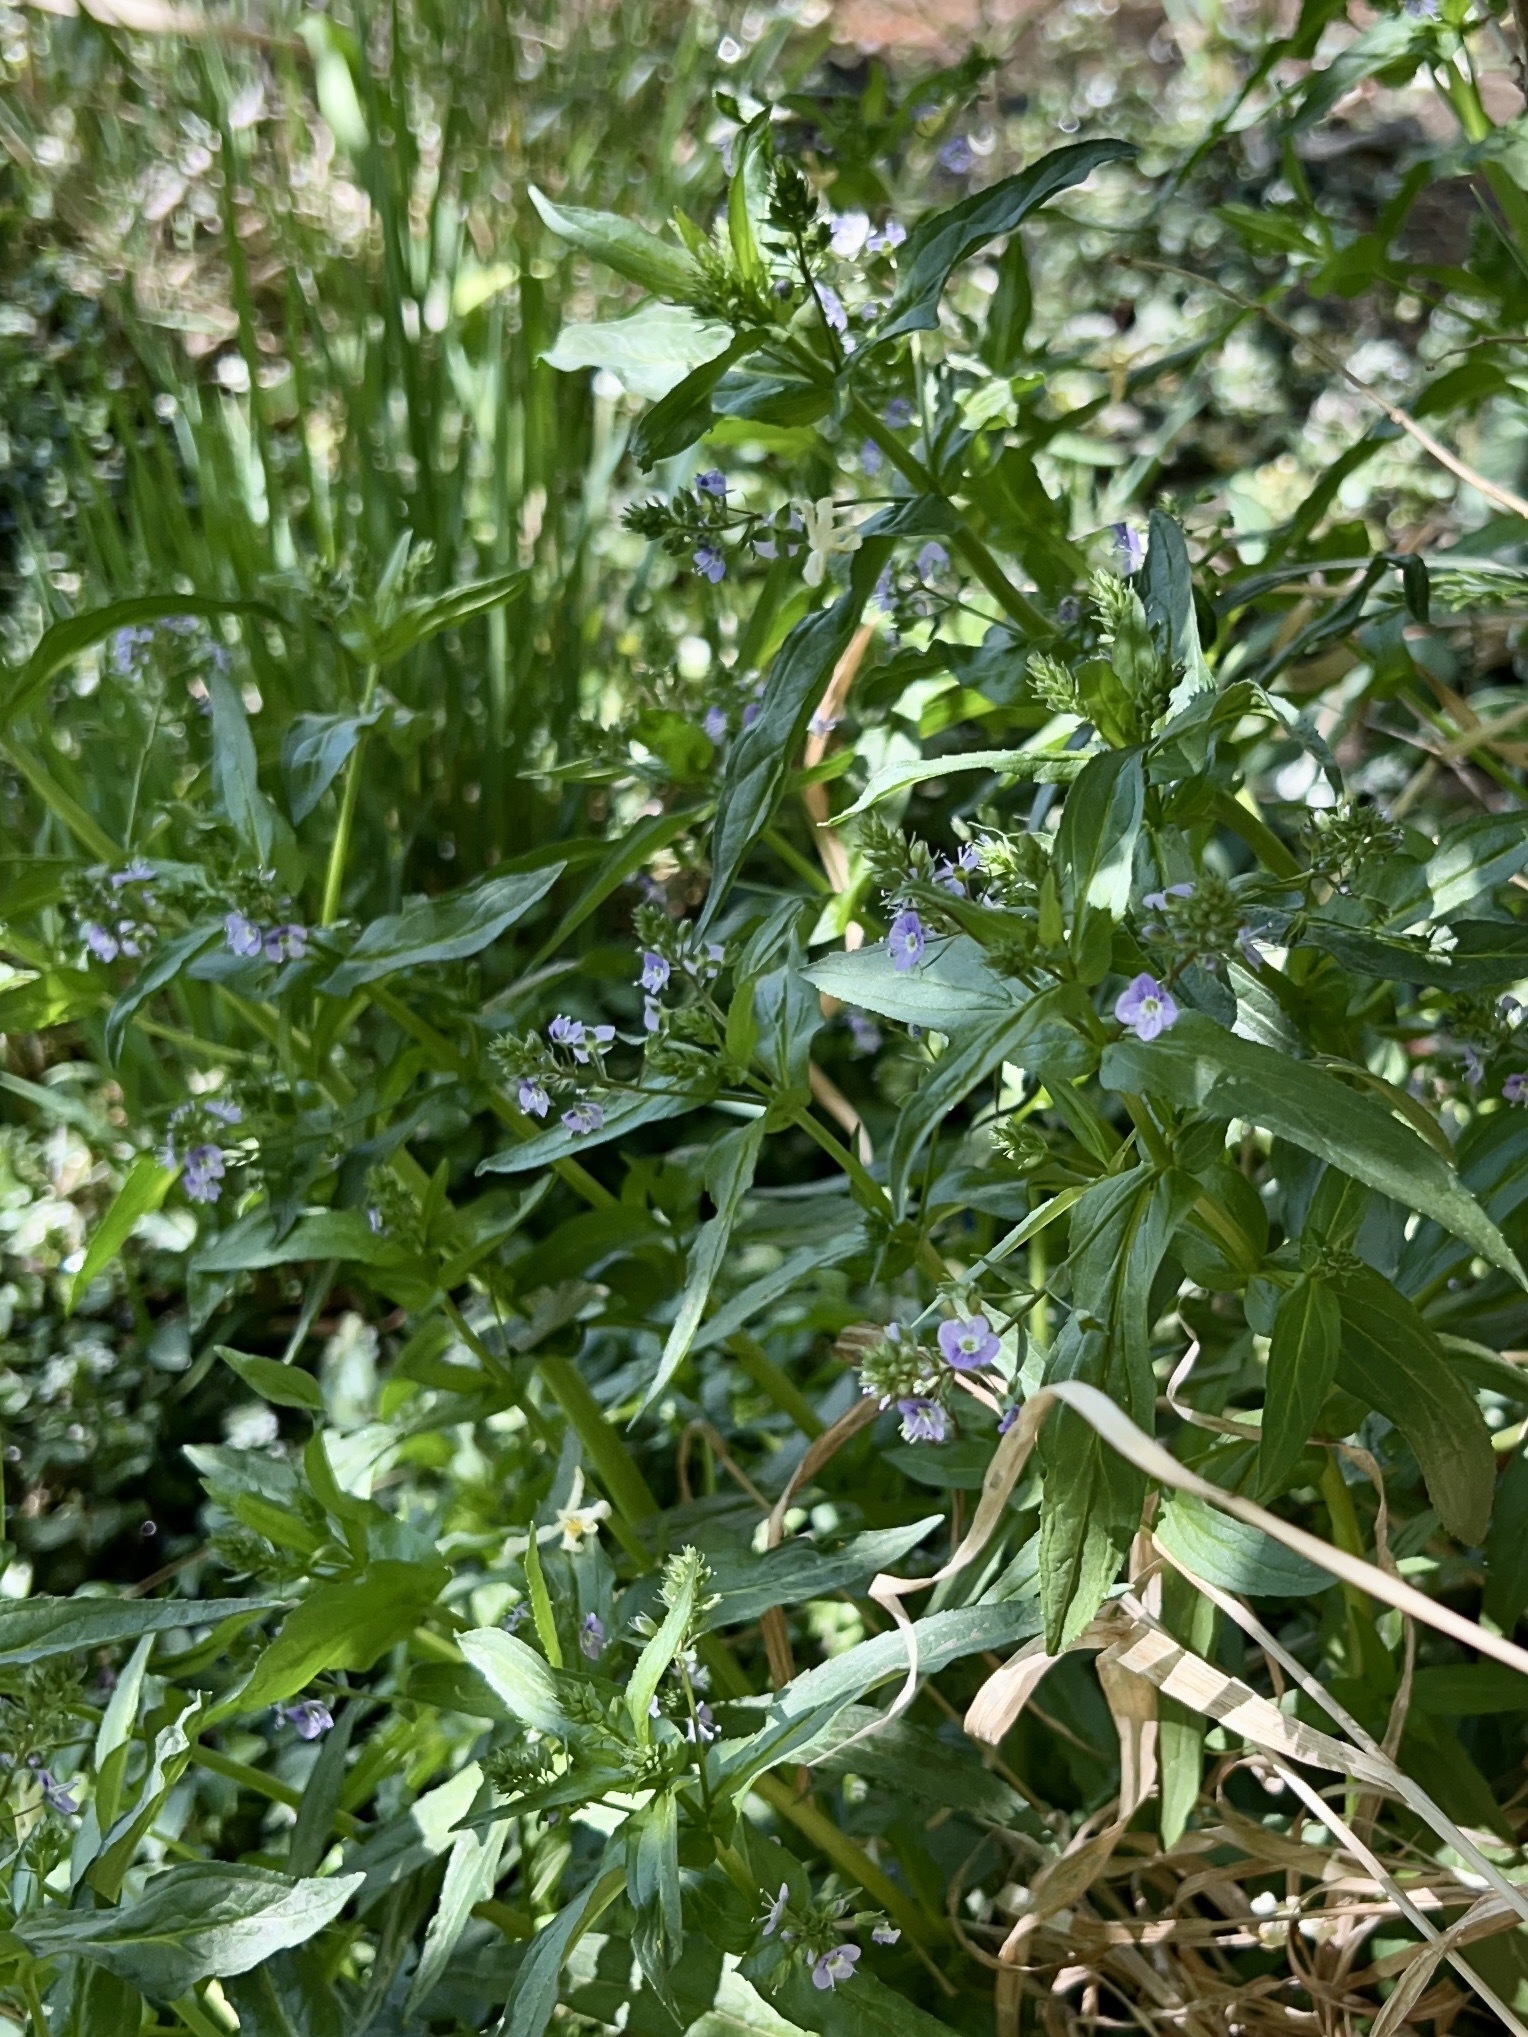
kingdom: Plantae
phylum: Tracheophyta
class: Magnoliopsida
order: Lamiales
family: Plantaginaceae
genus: Veronica
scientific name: Veronica anagallis-aquatica
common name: Water speedwell
